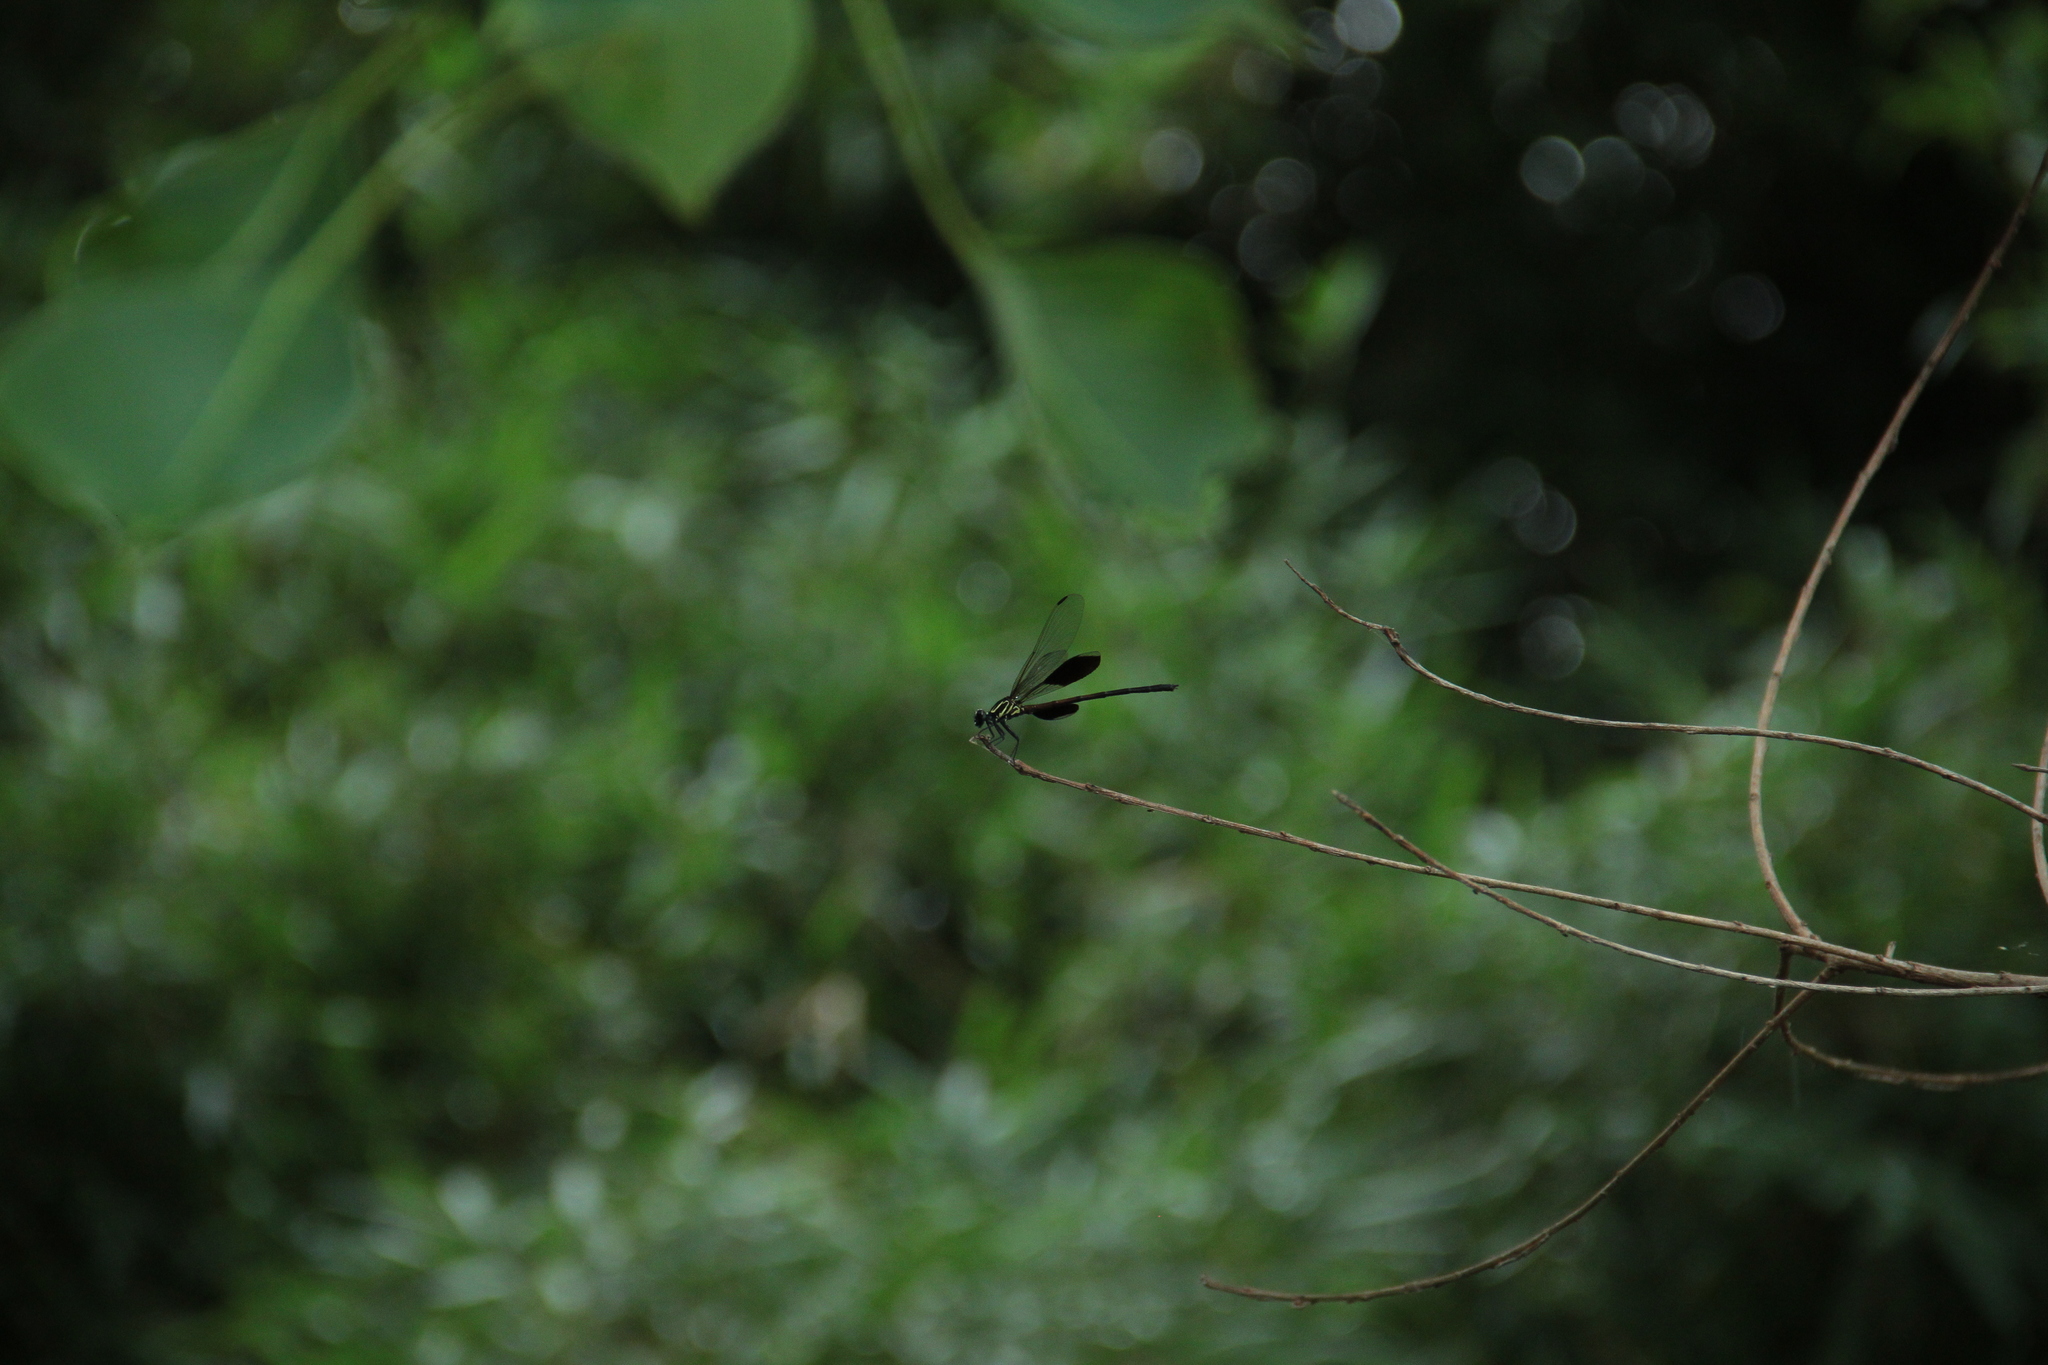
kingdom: Animalia
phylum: Arthropoda
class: Insecta
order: Odonata
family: Euphaeidae
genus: Euphaea
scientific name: Euphaea formosa
